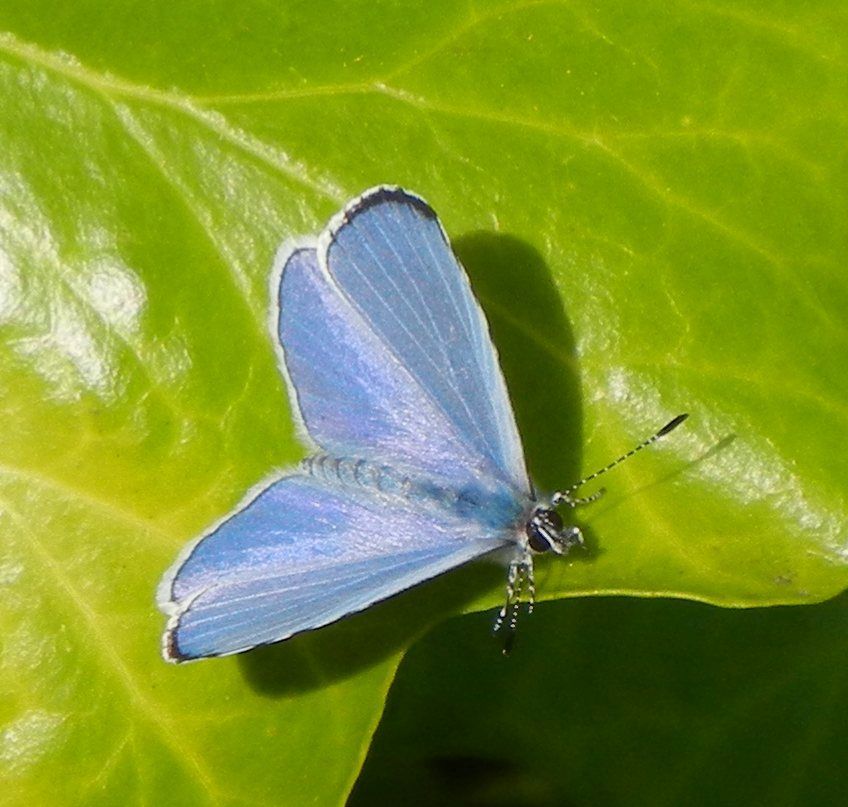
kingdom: Animalia
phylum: Arthropoda
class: Insecta
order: Lepidoptera
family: Lycaenidae
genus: Celastrina
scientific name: Celastrina argiolus
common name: Holly blue
